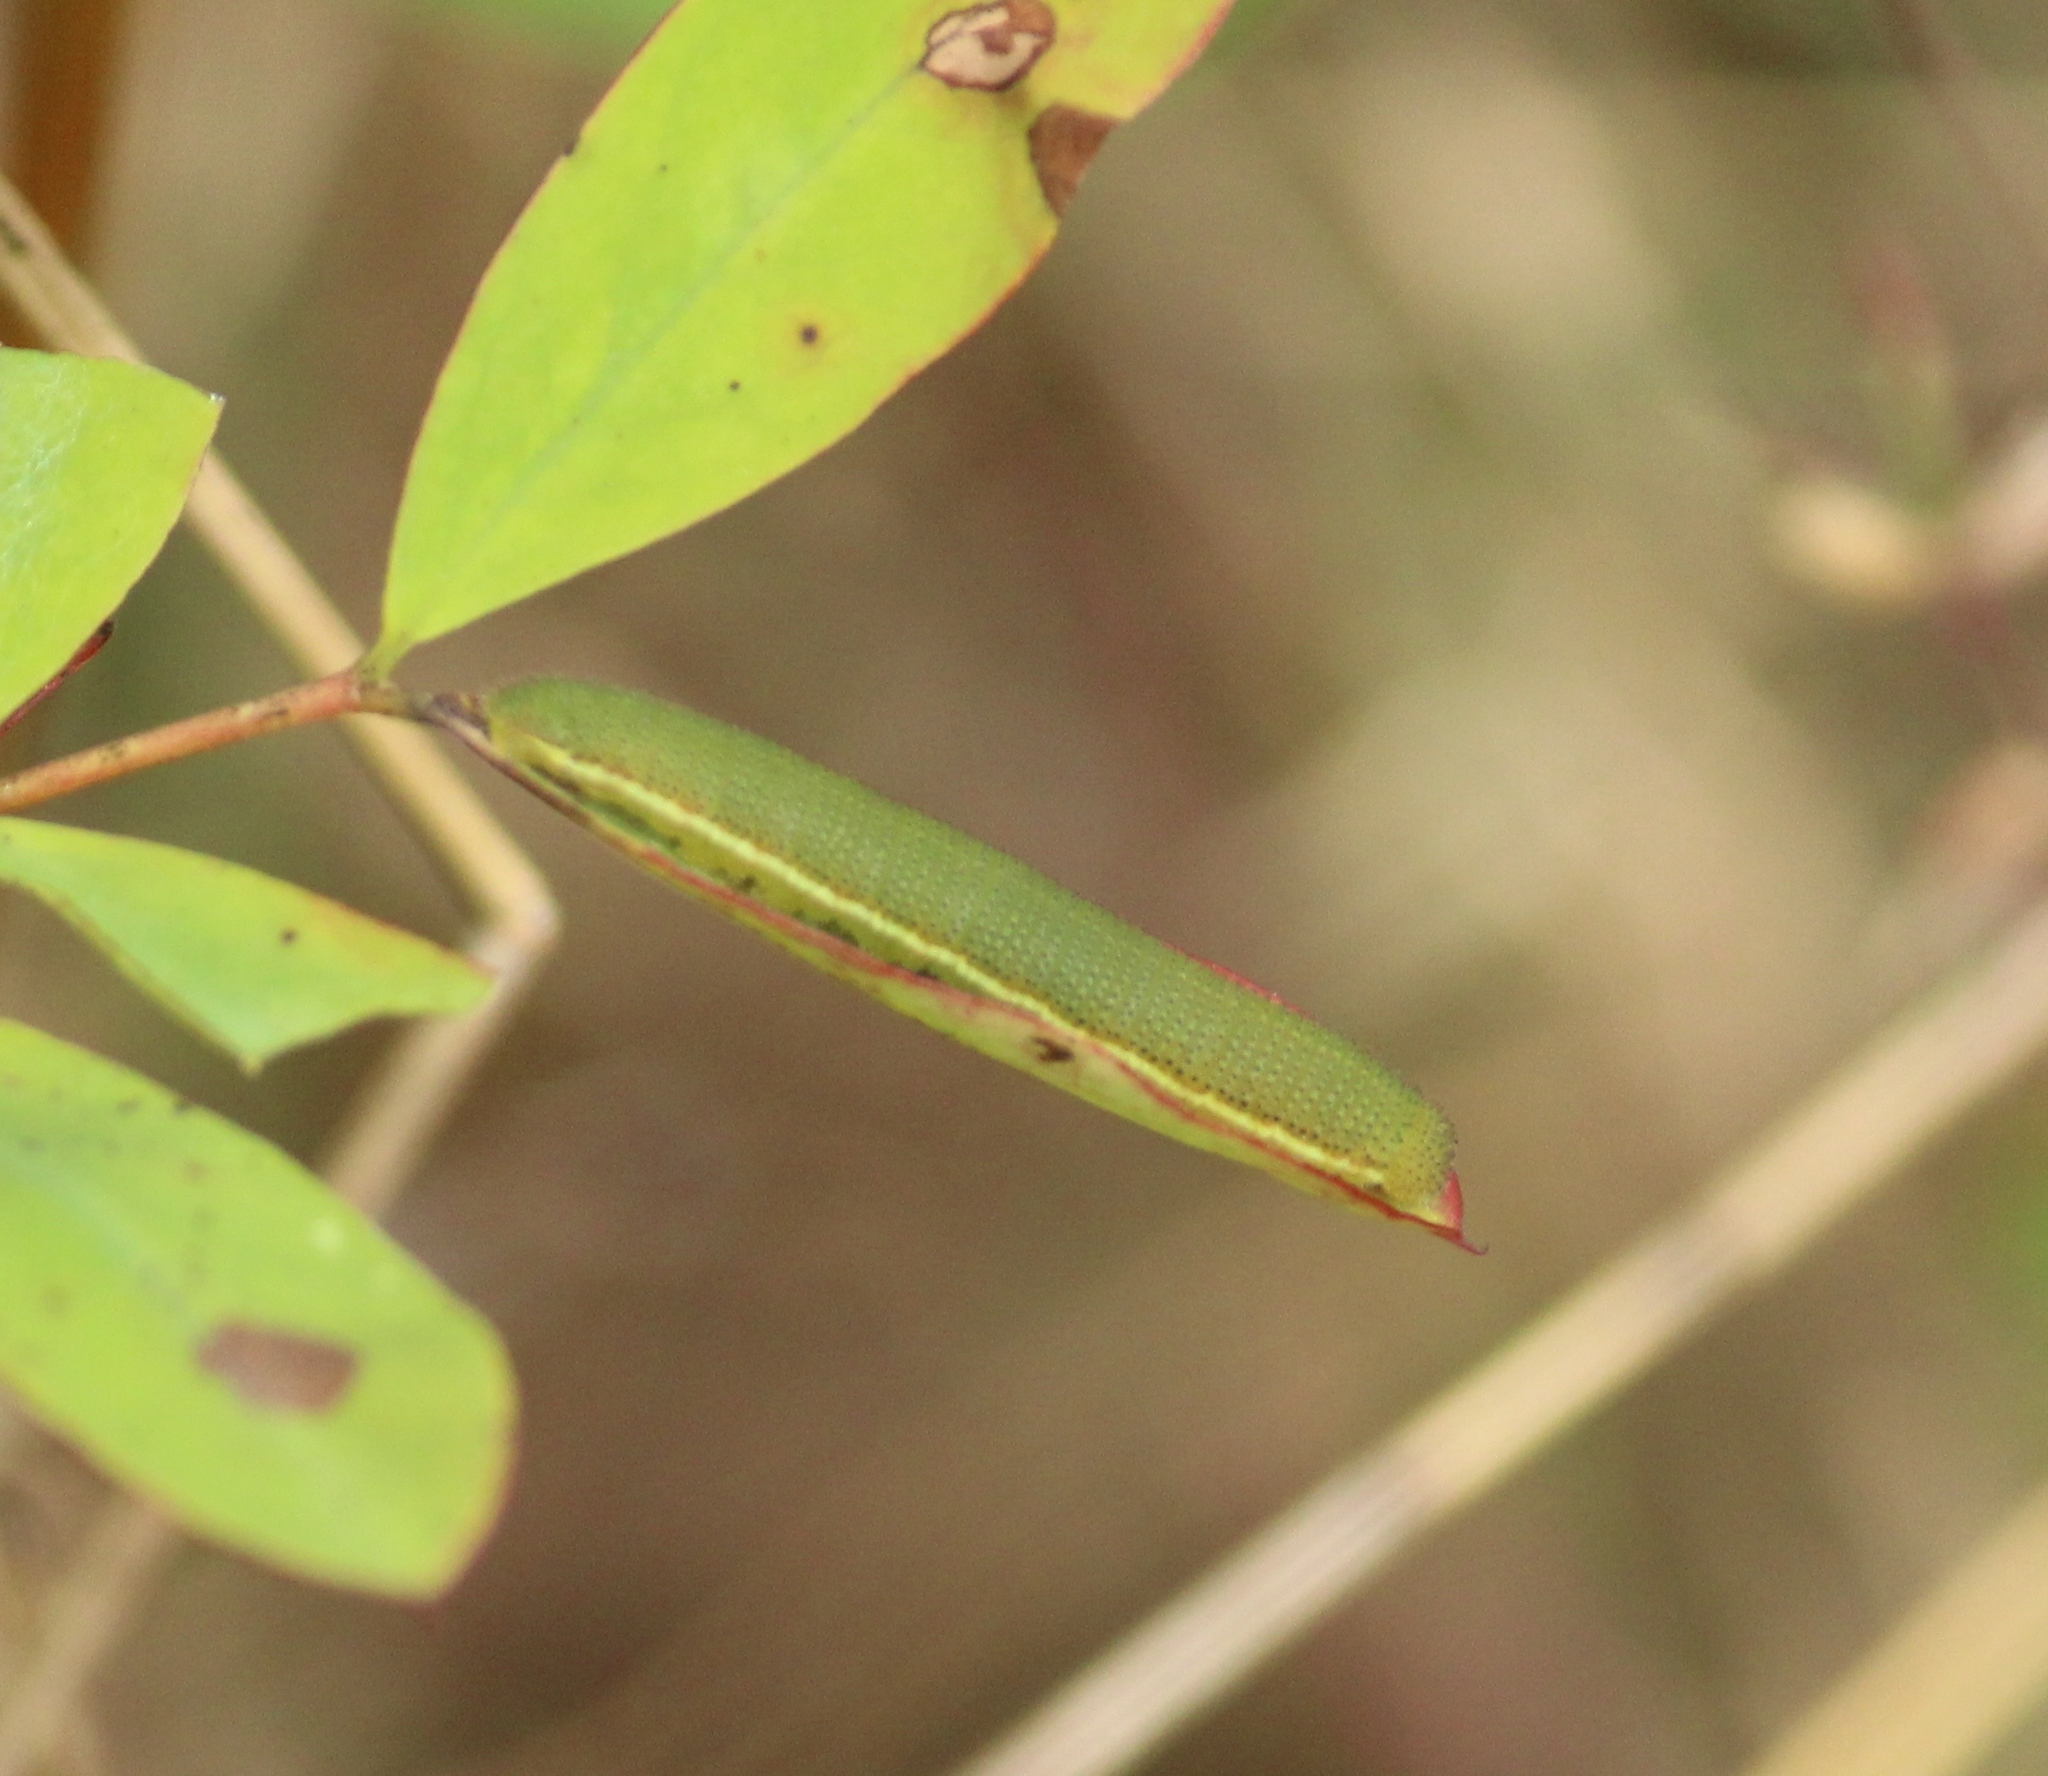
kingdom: Animalia
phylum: Arthropoda
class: Insecta
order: Lepidoptera
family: Pieridae
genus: Catopsilia
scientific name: Catopsilia pomona
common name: Common emigrant
